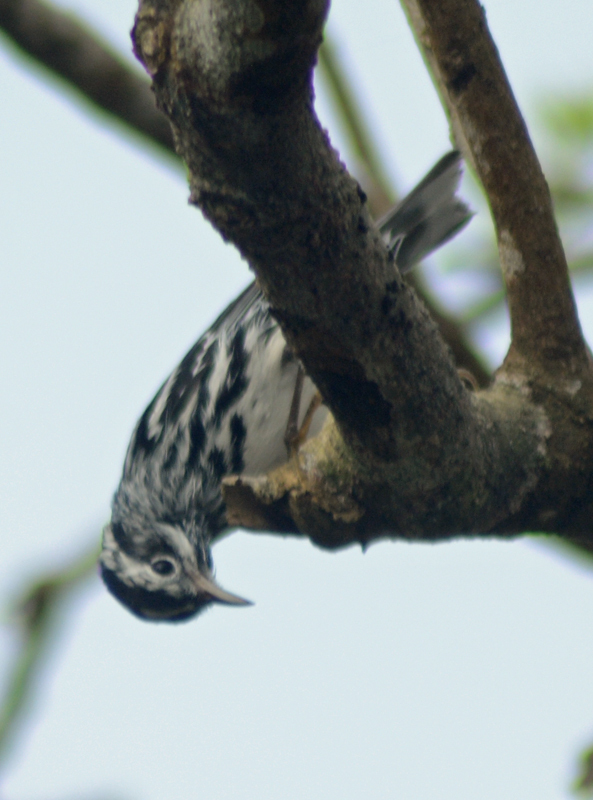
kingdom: Animalia
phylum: Chordata
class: Aves
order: Passeriformes
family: Parulidae
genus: Mniotilta
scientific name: Mniotilta varia
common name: Black-and-white warbler
